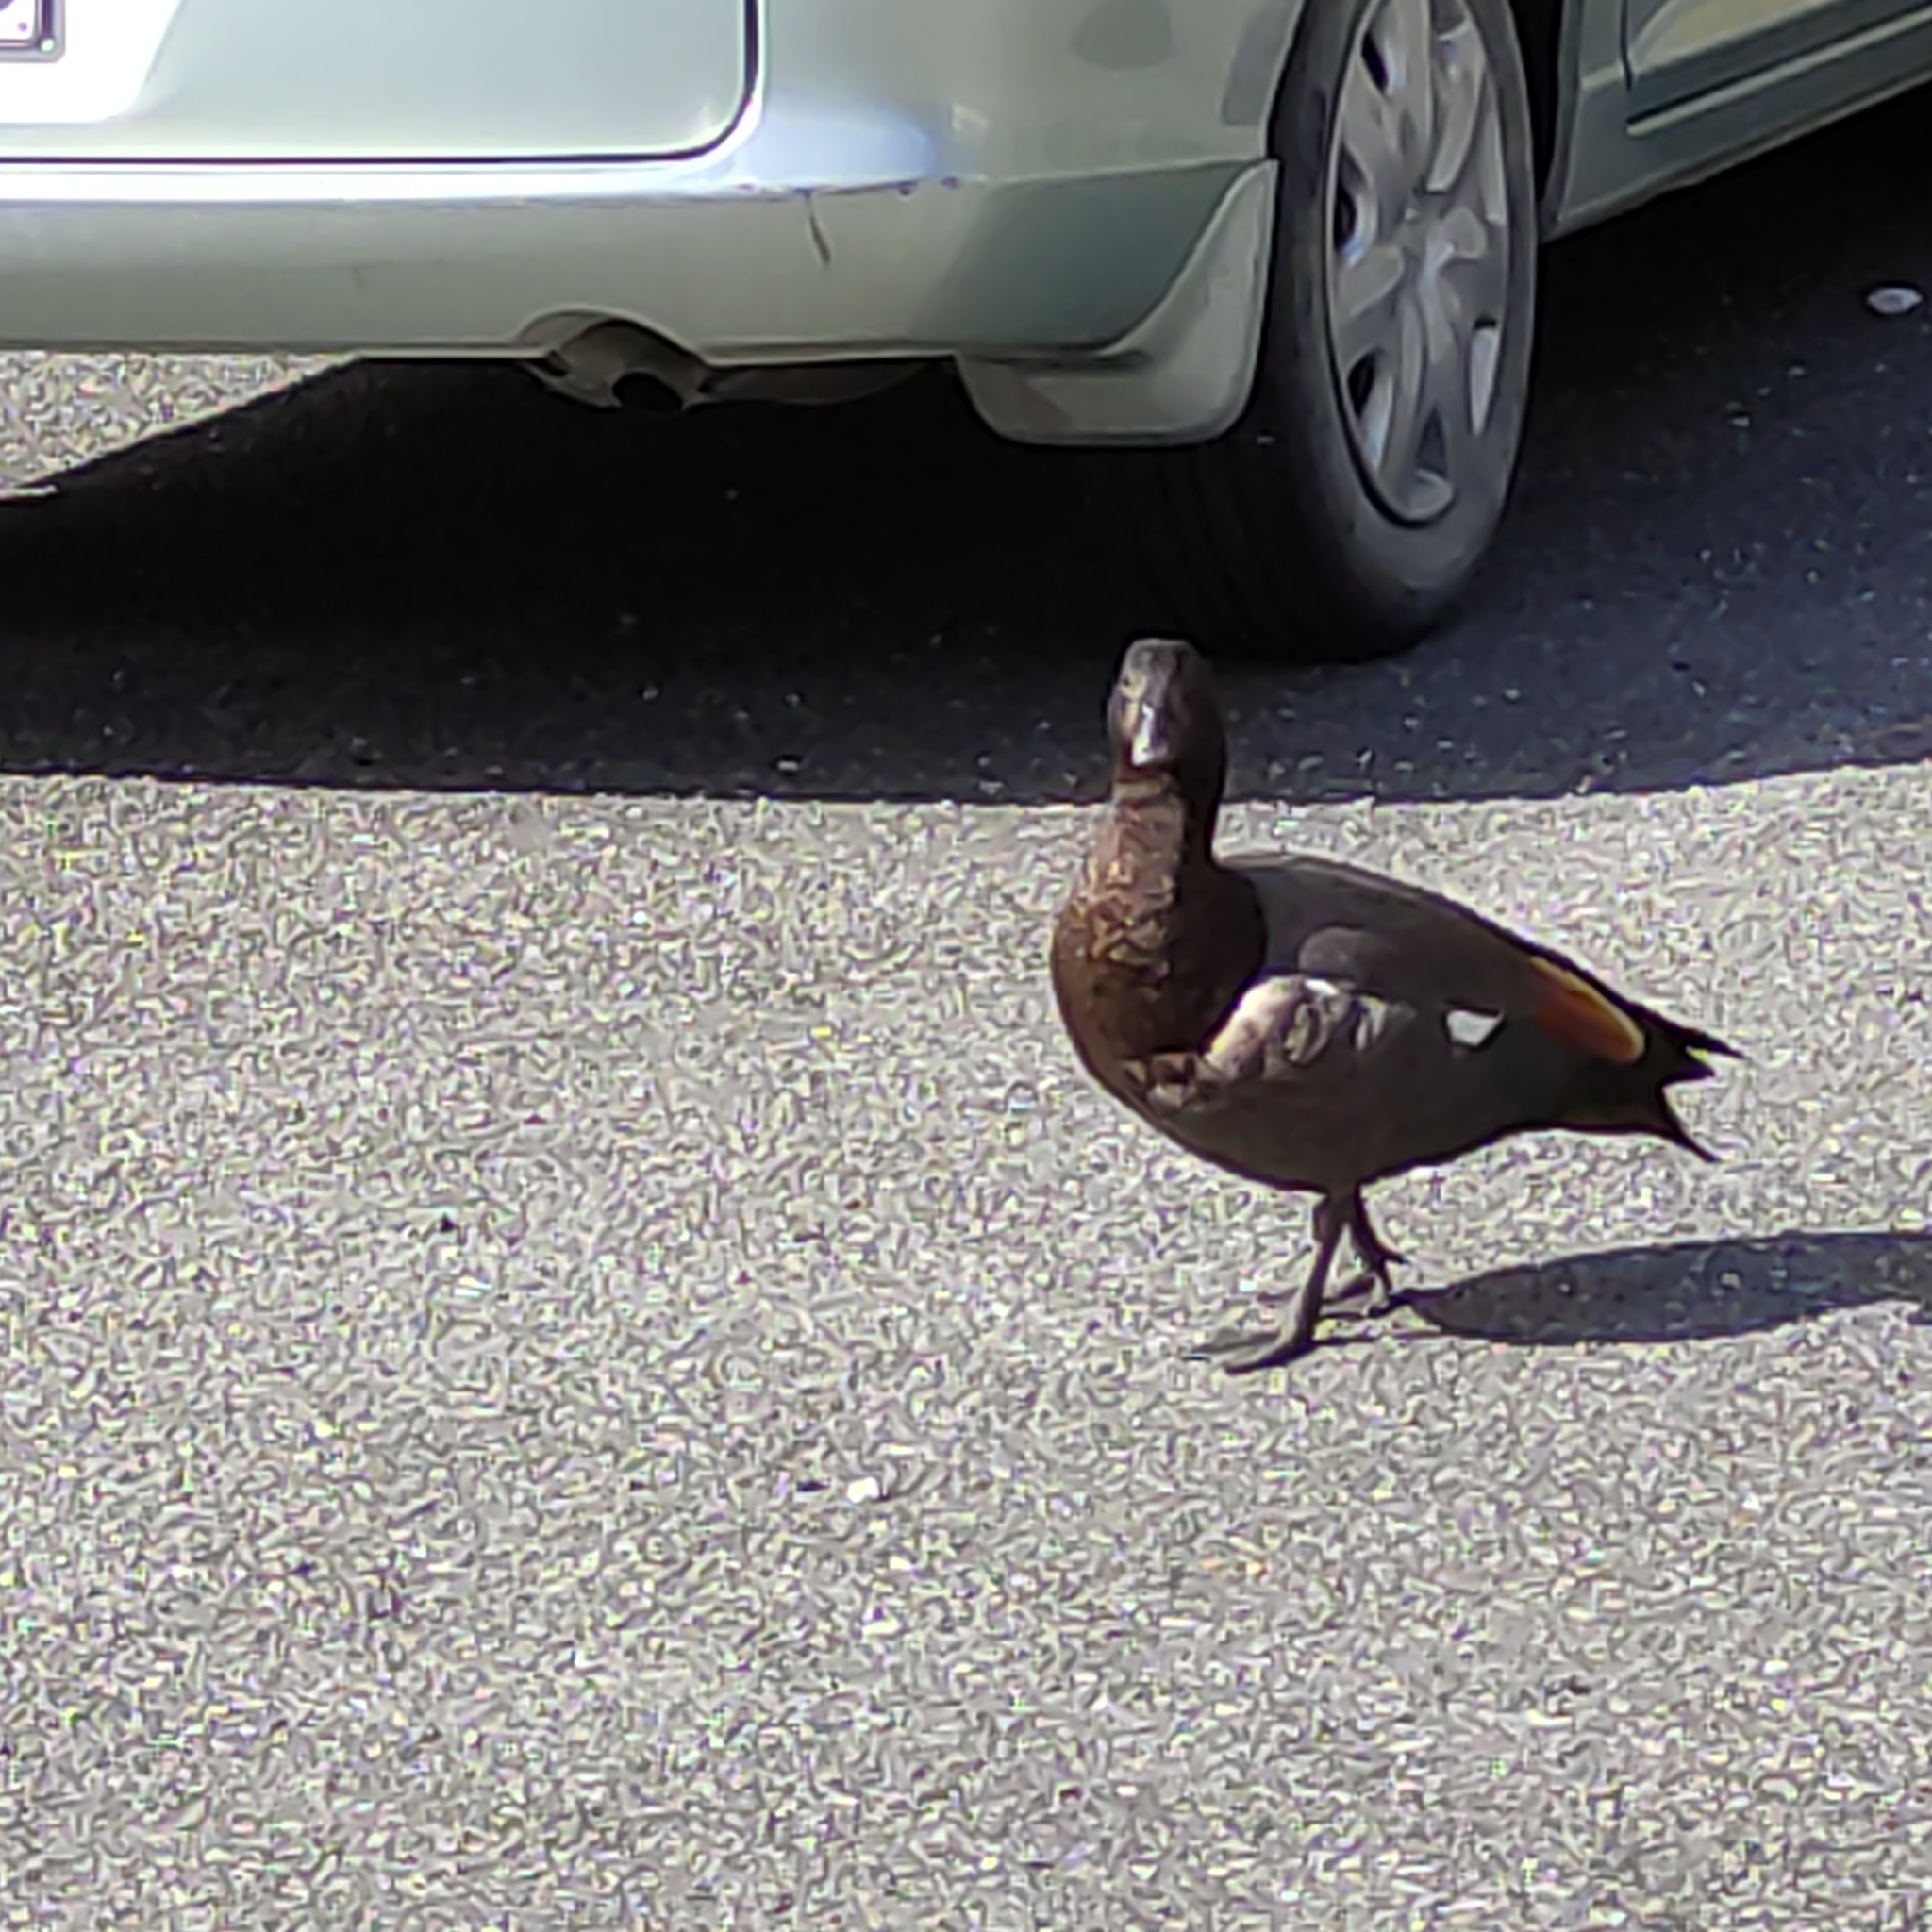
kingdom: Animalia
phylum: Chordata
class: Aves
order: Anseriformes
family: Anatidae
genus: Tadorna
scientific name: Tadorna variegata
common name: Paradise shelduck
